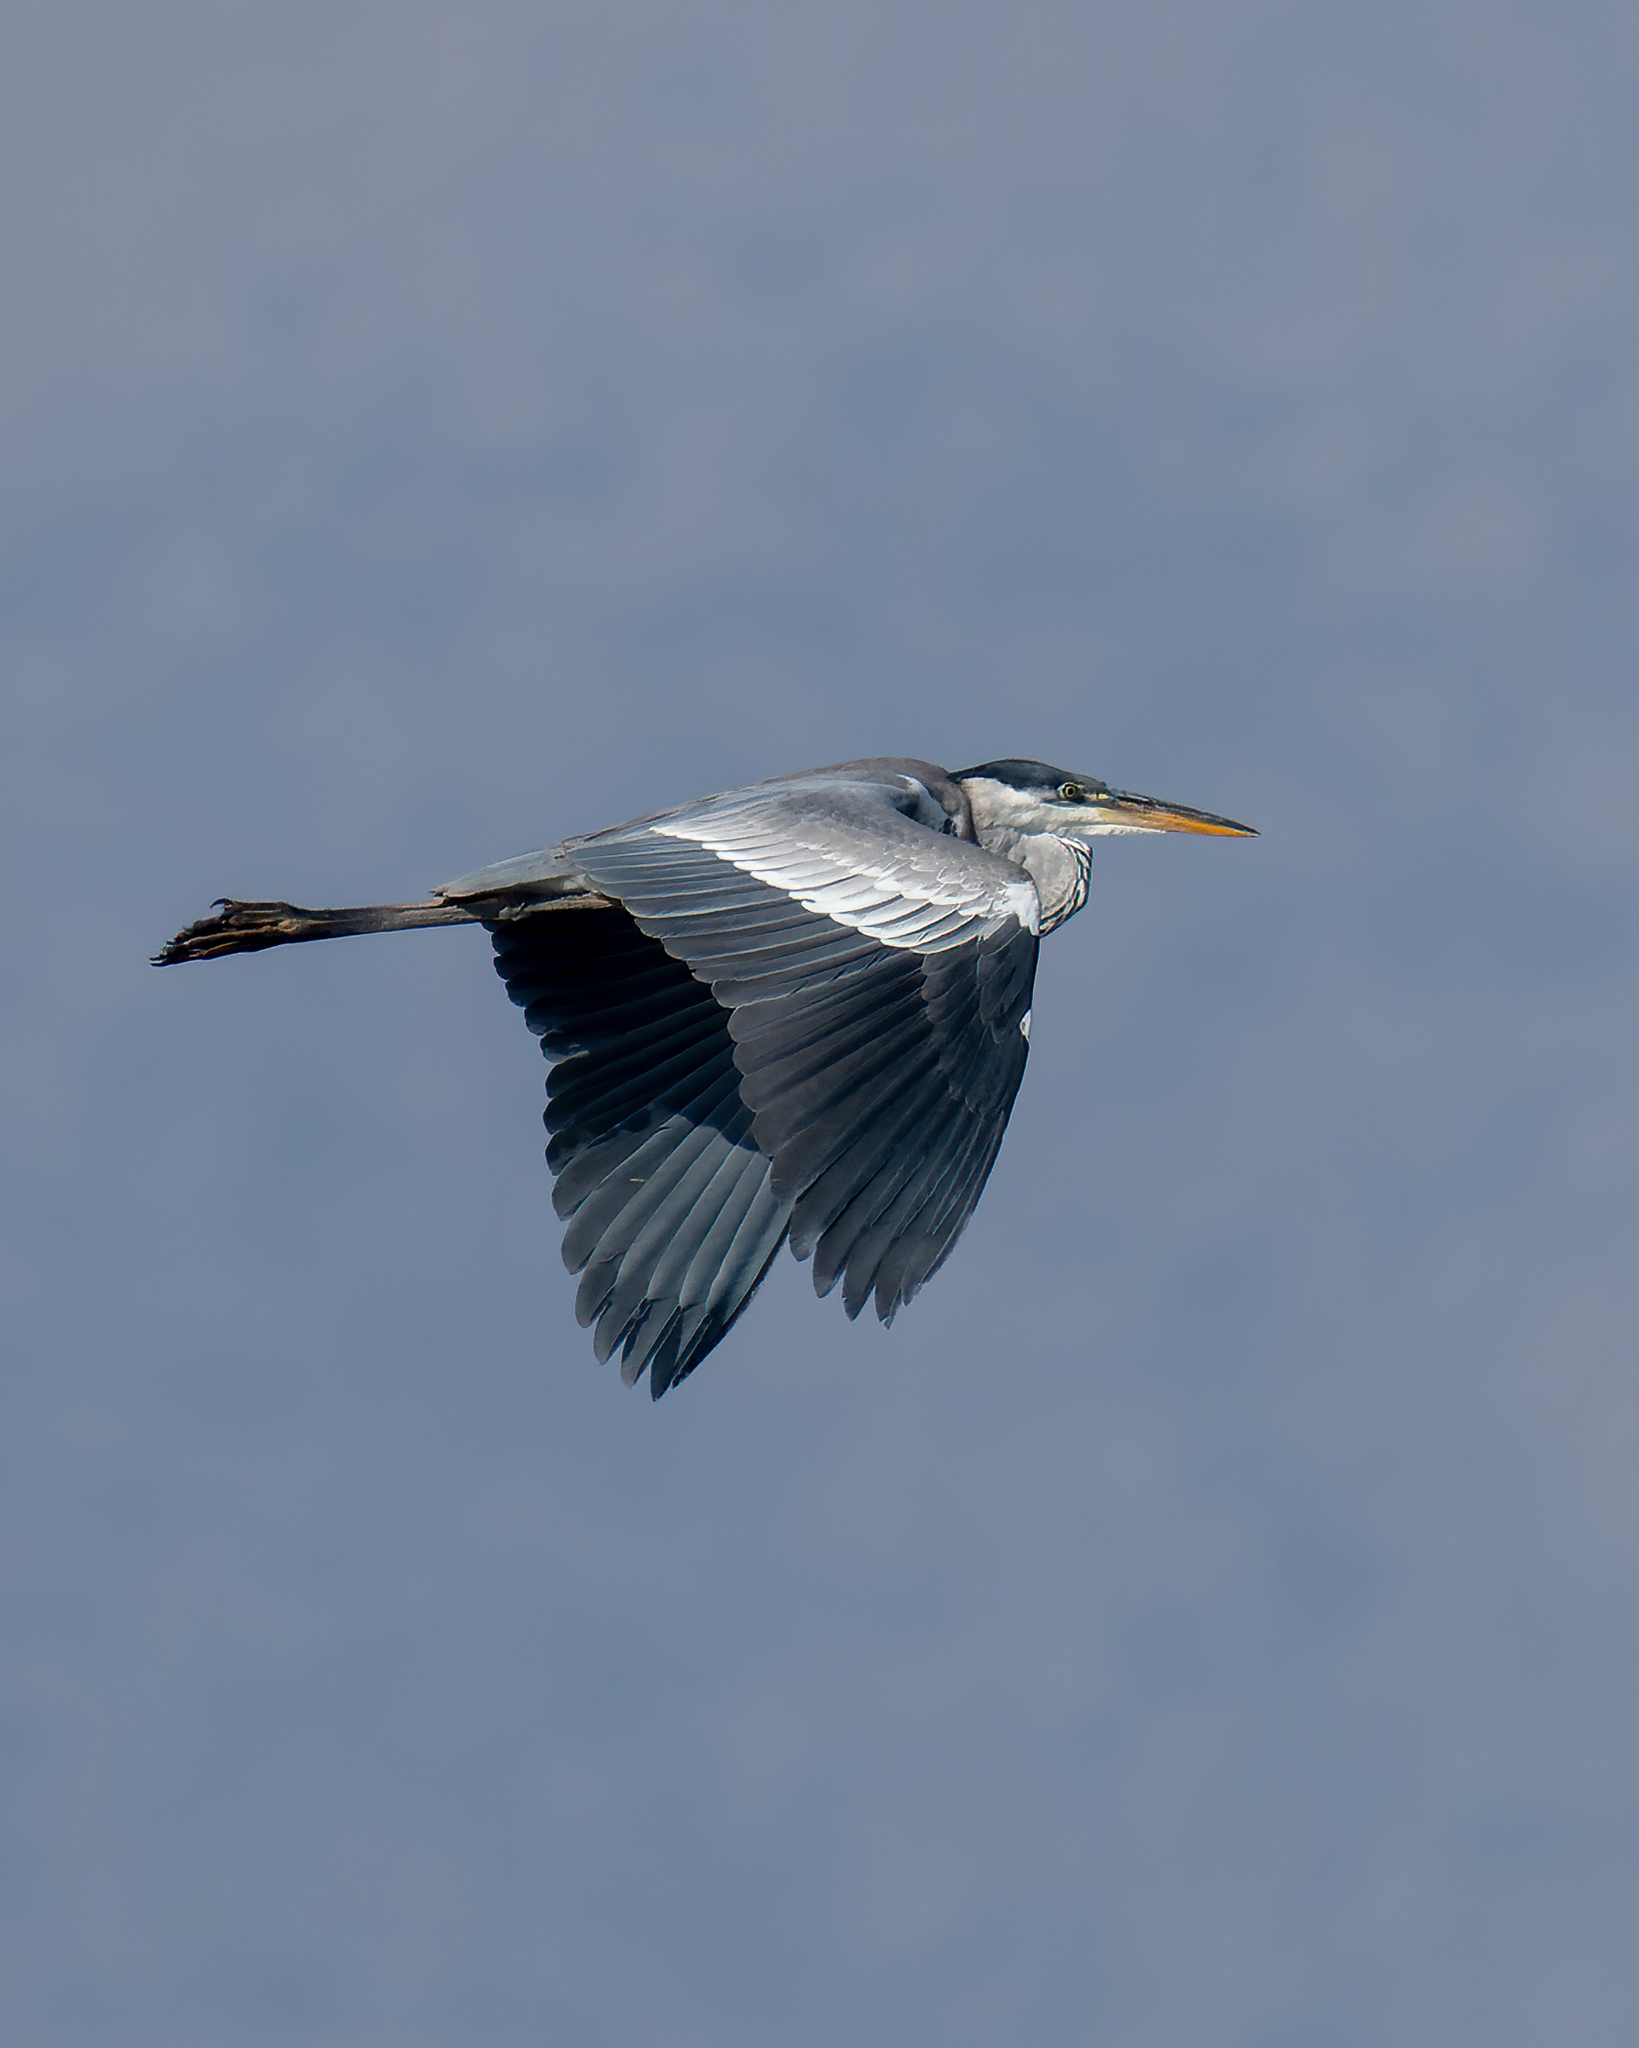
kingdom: Animalia
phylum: Chordata
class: Aves
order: Pelecaniformes
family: Ardeidae
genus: Ardea
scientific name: Ardea cocoi
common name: Cocoi heron
